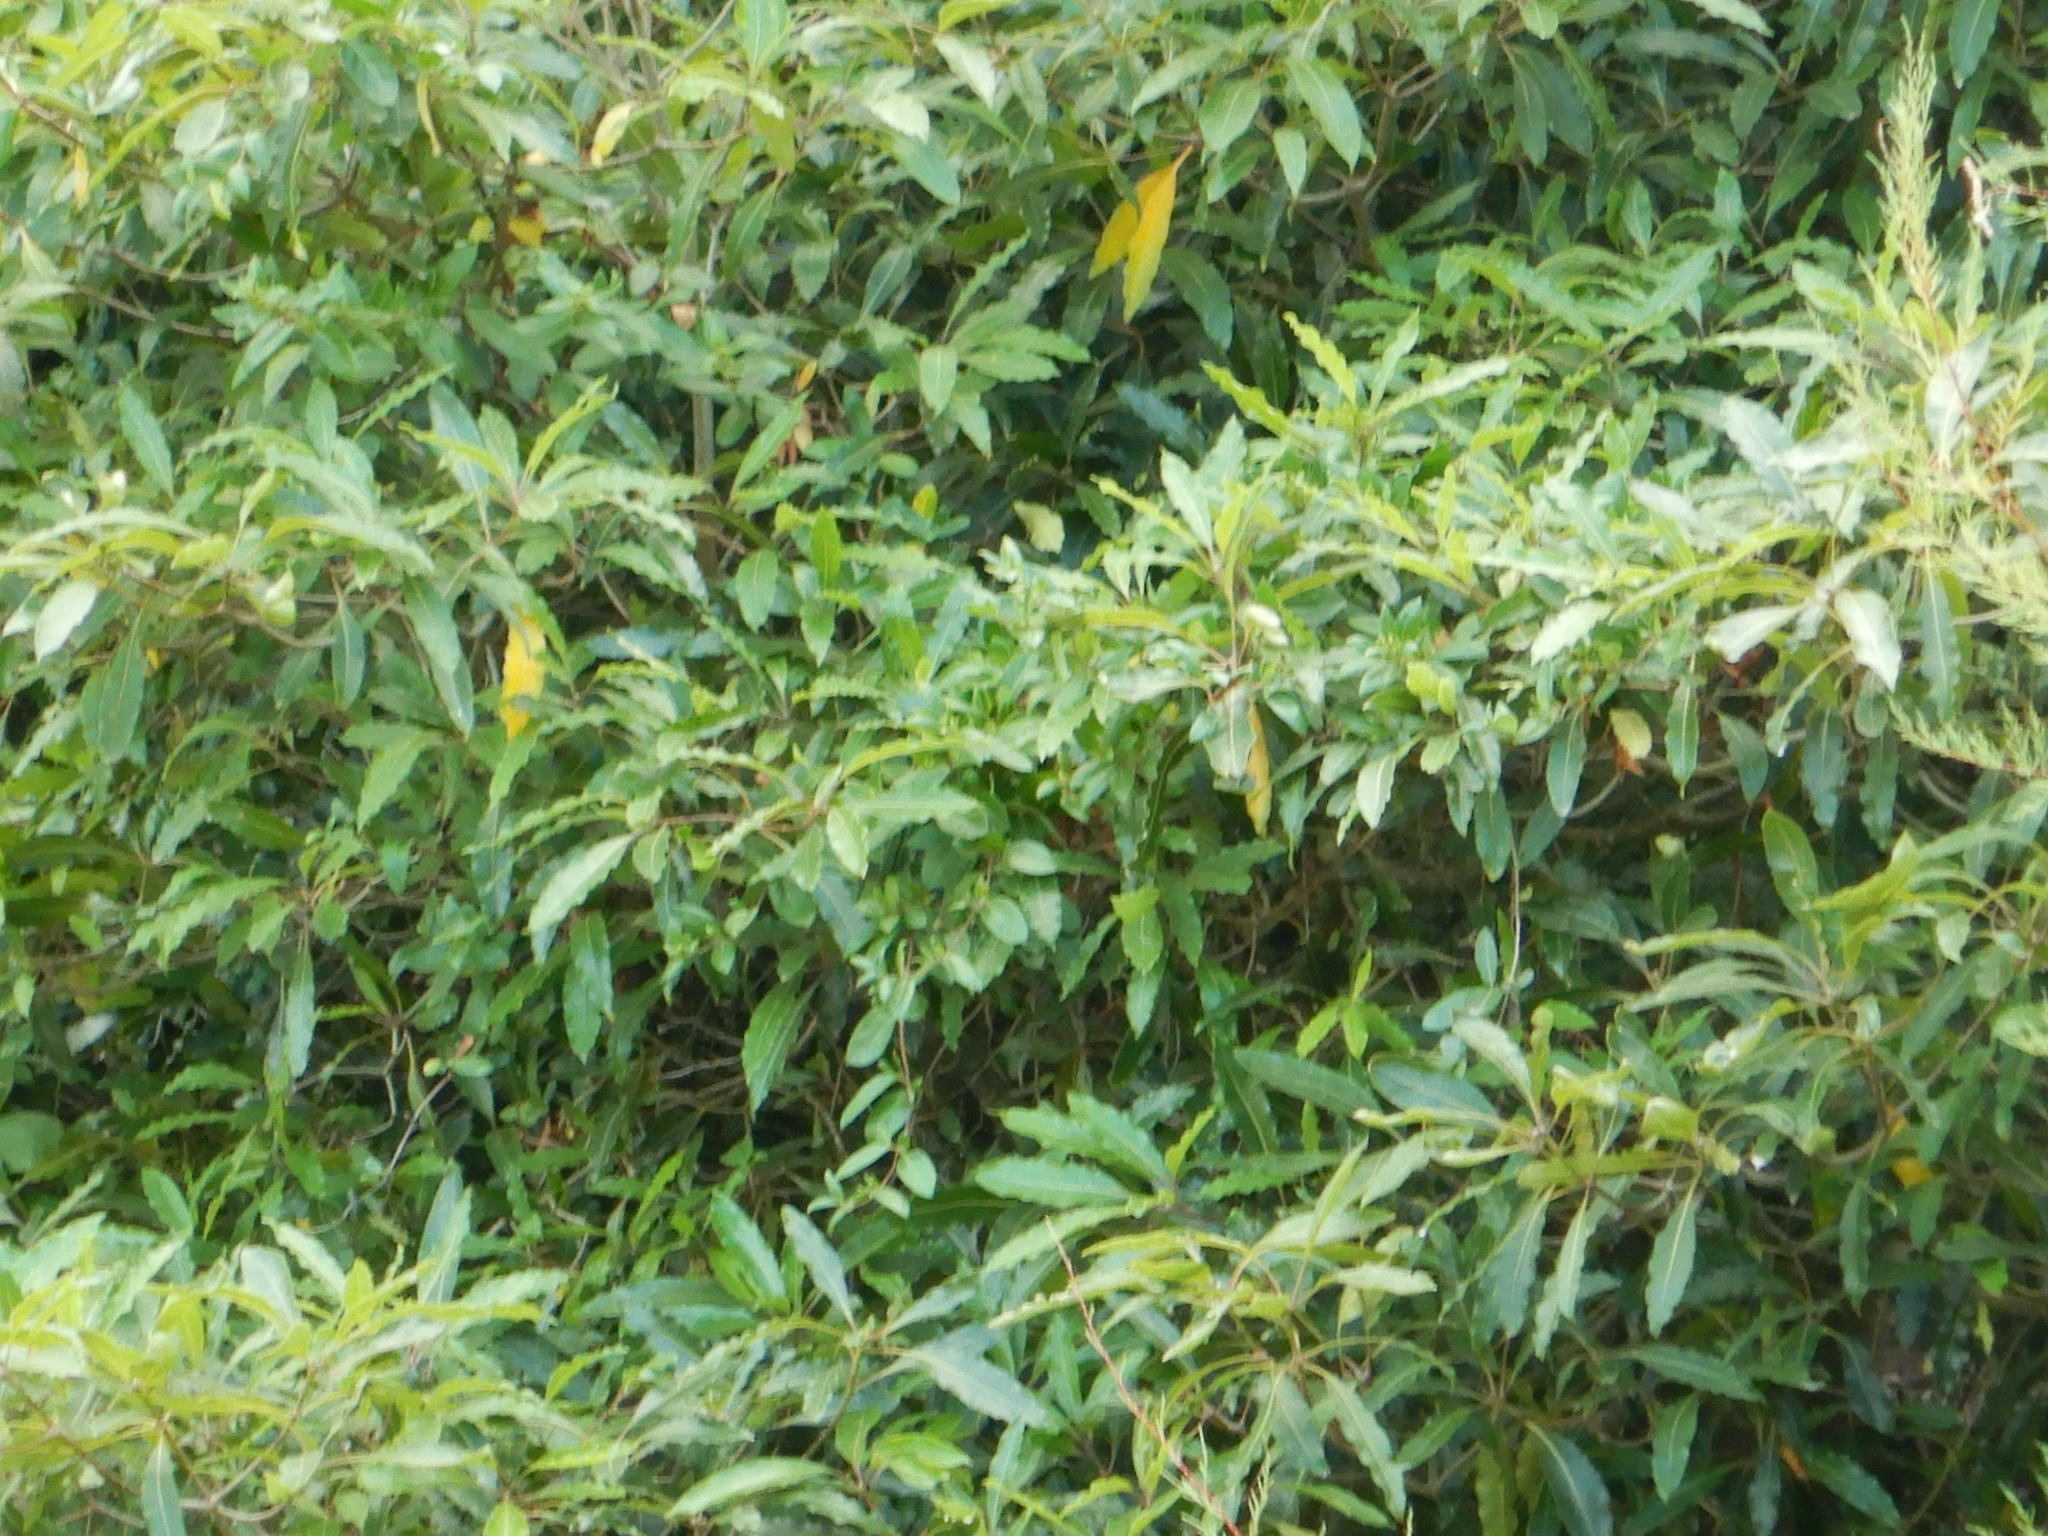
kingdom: Plantae
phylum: Tracheophyta
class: Magnoliopsida
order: Apiales
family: Pittosporaceae
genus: Pittosporum
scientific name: Pittosporum undulatum
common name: Australian cheesewood
